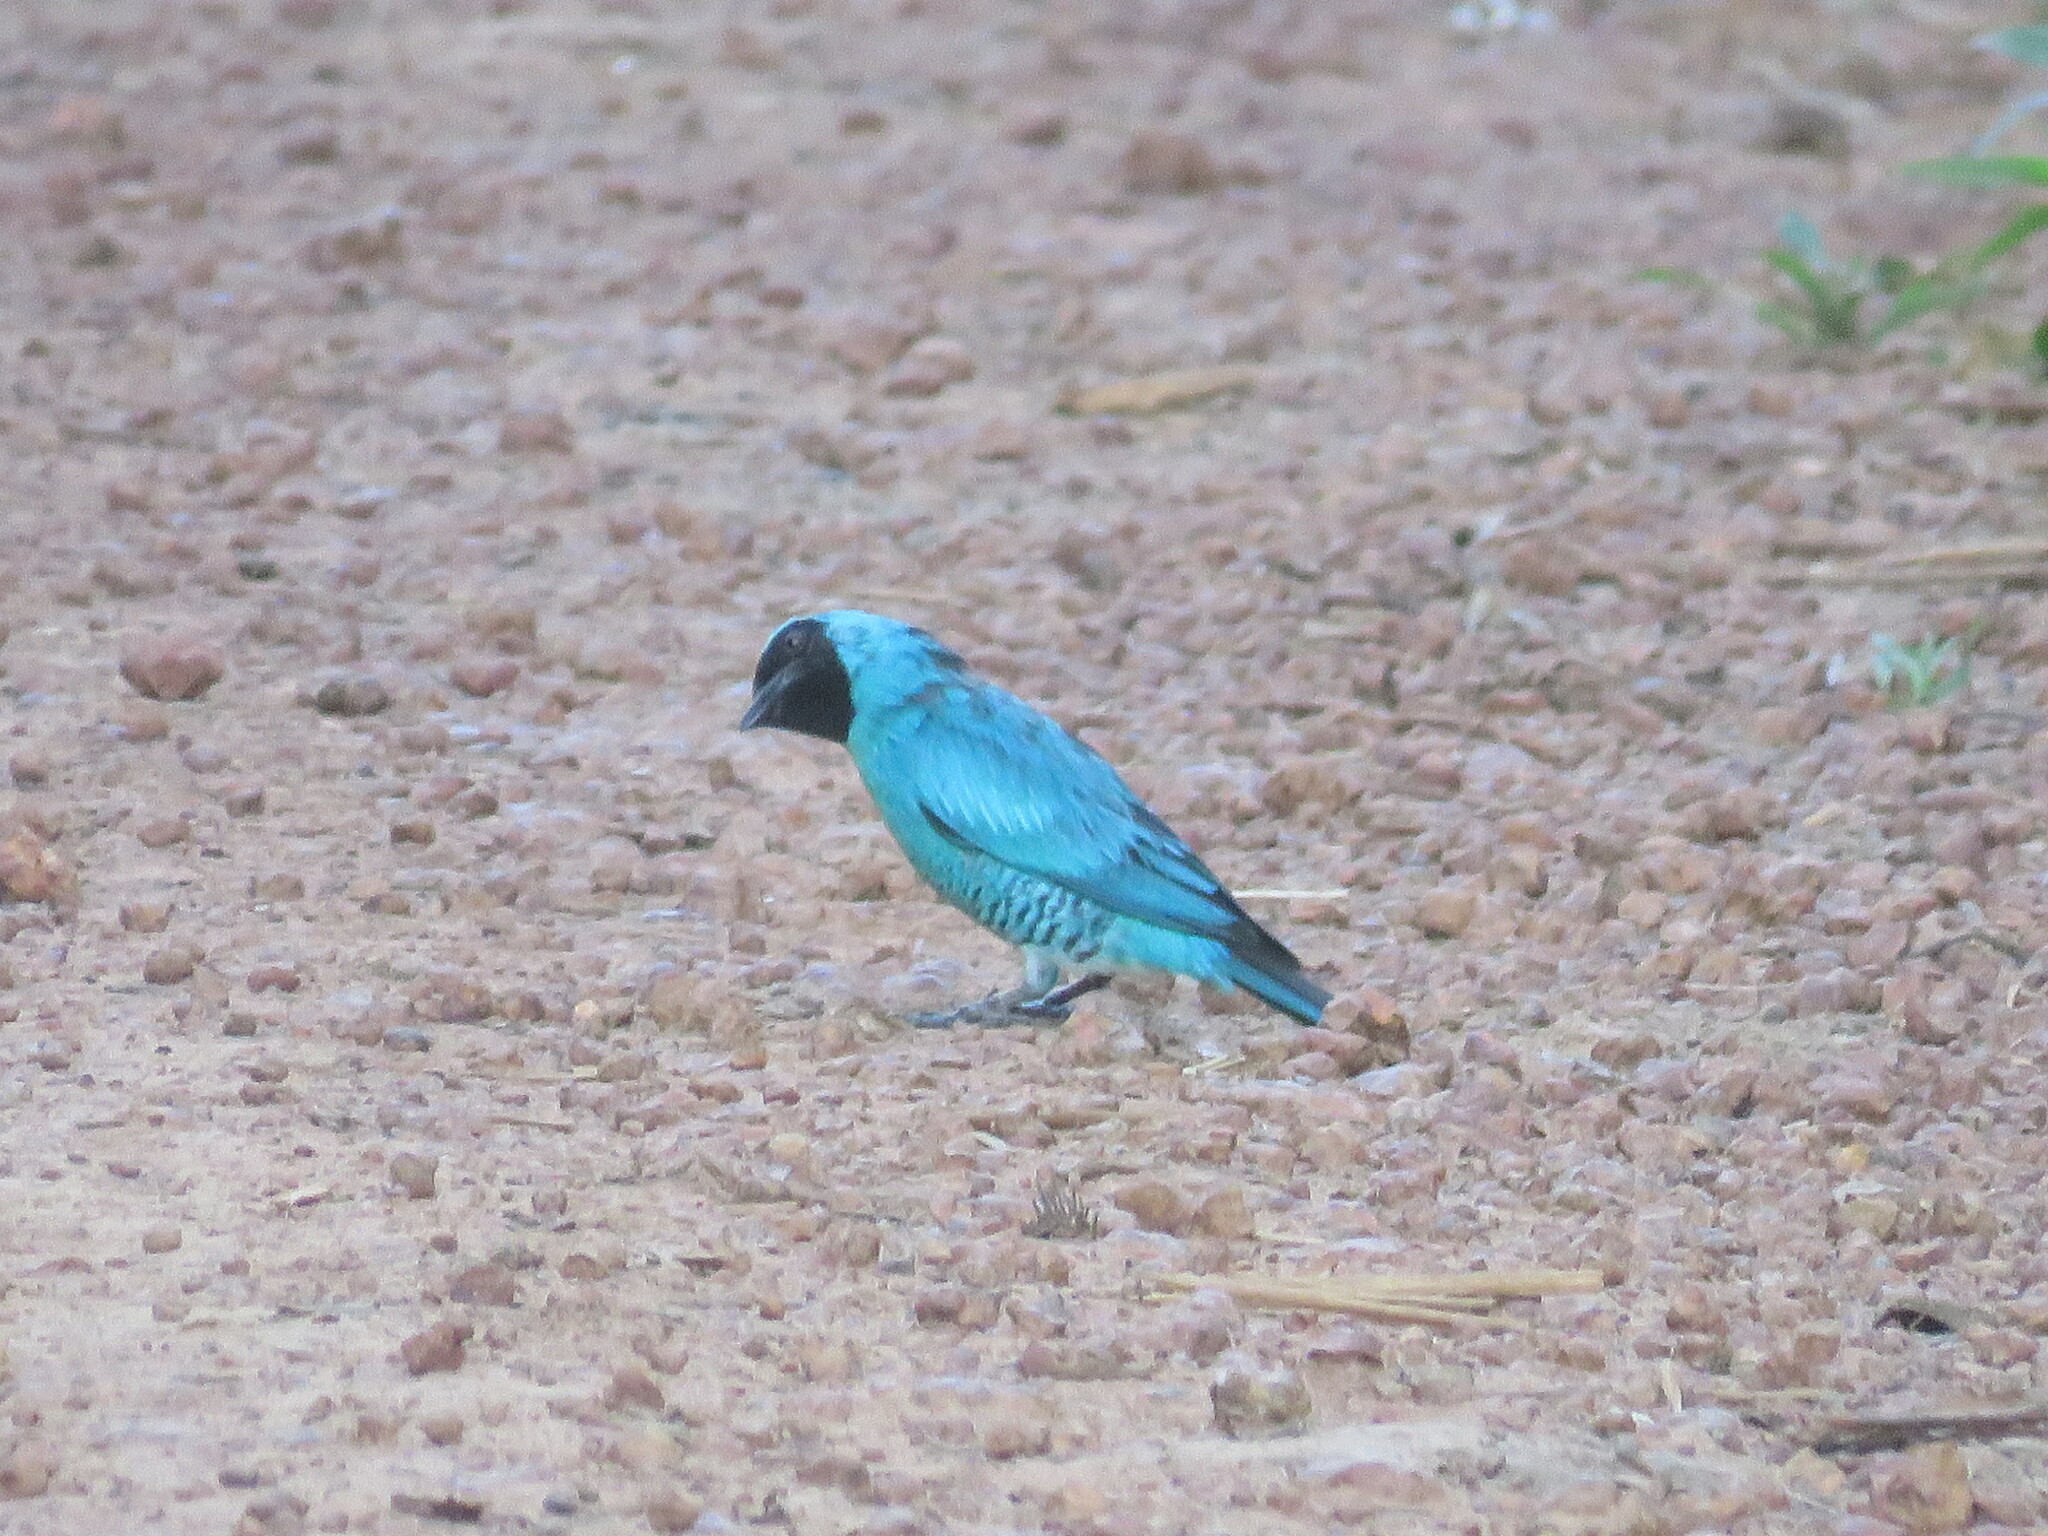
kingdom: Animalia
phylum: Chordata
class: Aves
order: Passeriformes
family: Thraupidae
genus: Tersina
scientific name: Tersina viridis
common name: Swallow tanager
